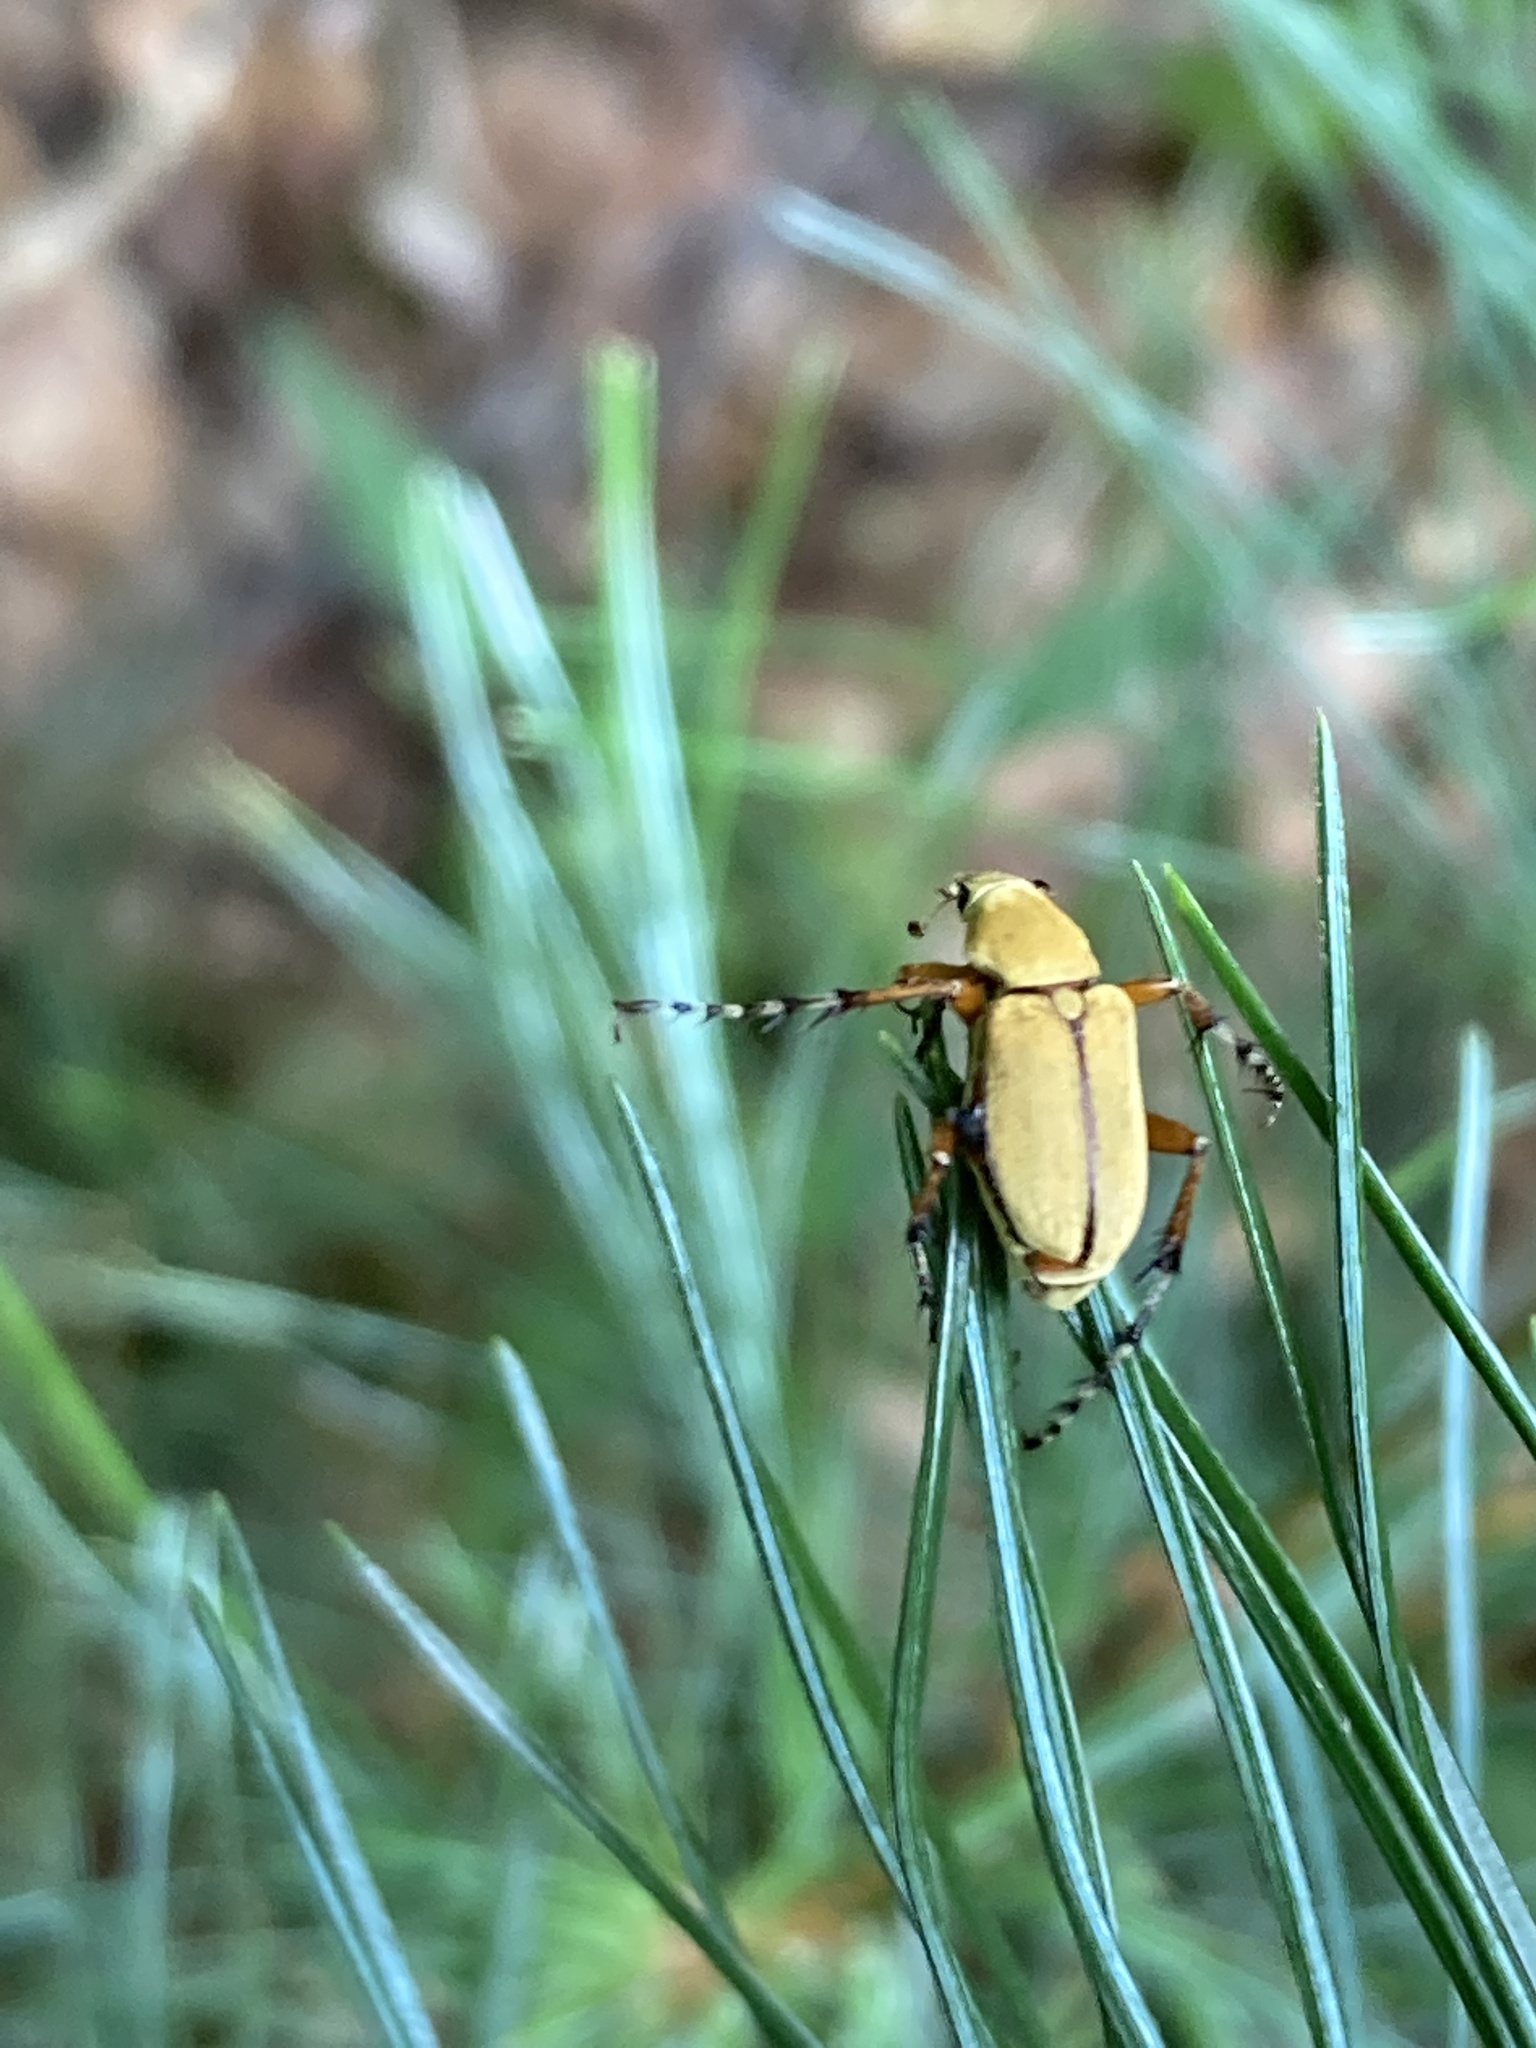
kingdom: Animalia
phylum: Arthropoda
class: Insecta
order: Coleoptera
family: Scarabaeidae
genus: Macrodactylus
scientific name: Macrodactylus subspinosus
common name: American rose chafer
